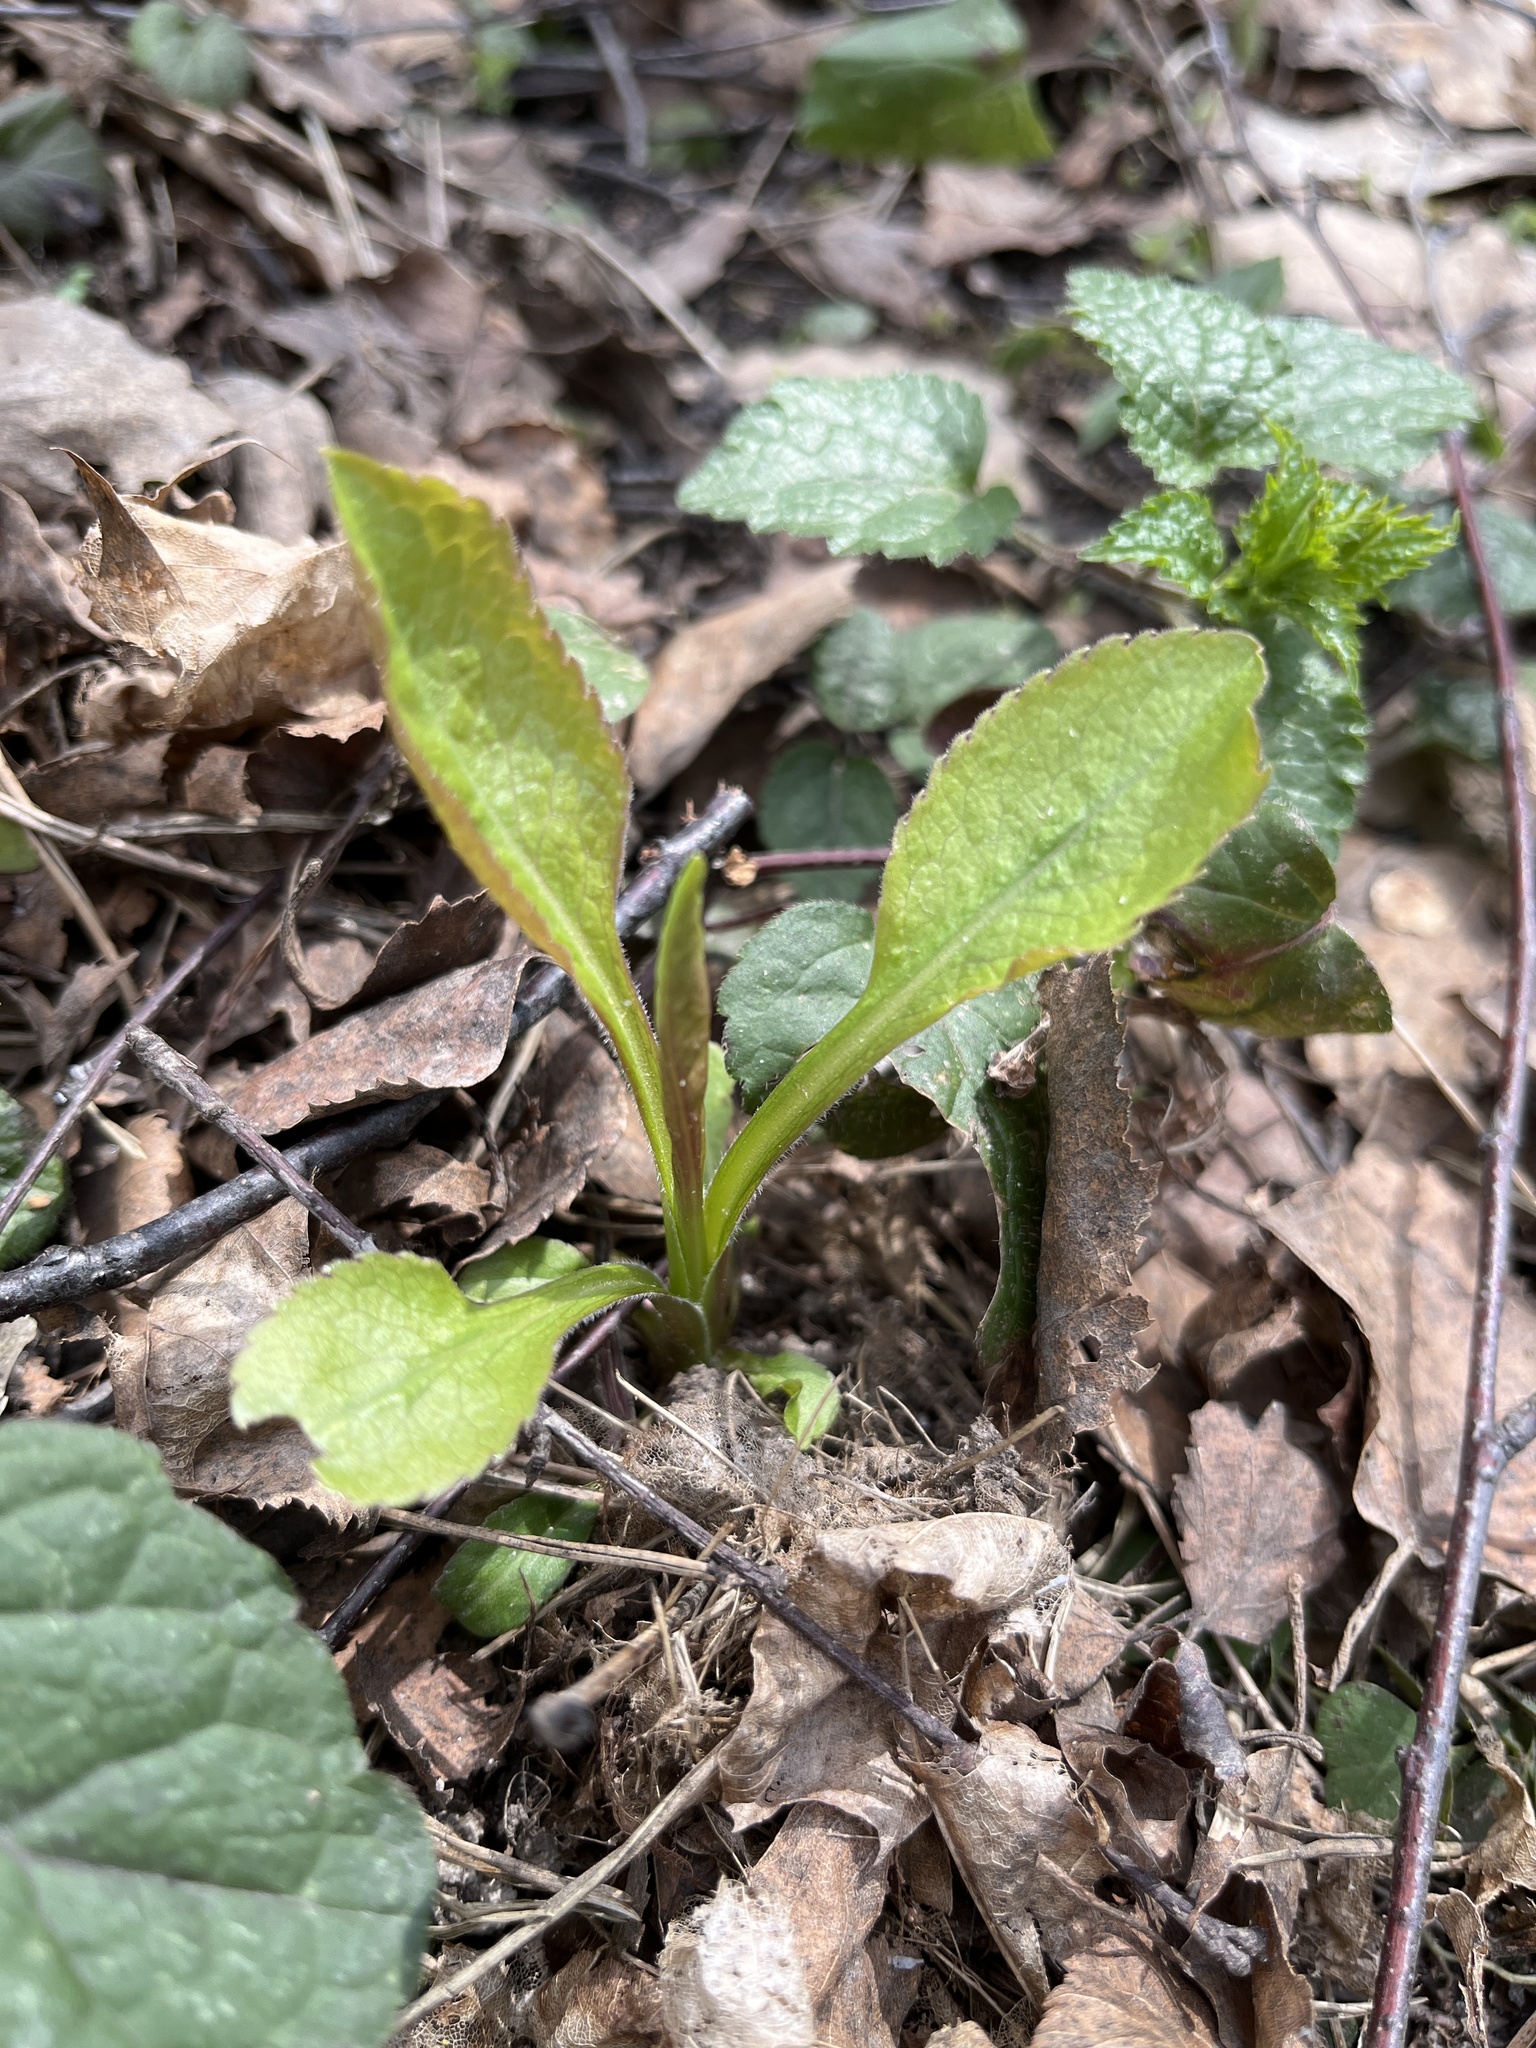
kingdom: Plantae
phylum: Tracheophyta
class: Magnoliopsida
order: Asterales
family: Asteraceae
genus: Solidago
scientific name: Solidago virgaurea
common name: Goldenrod
